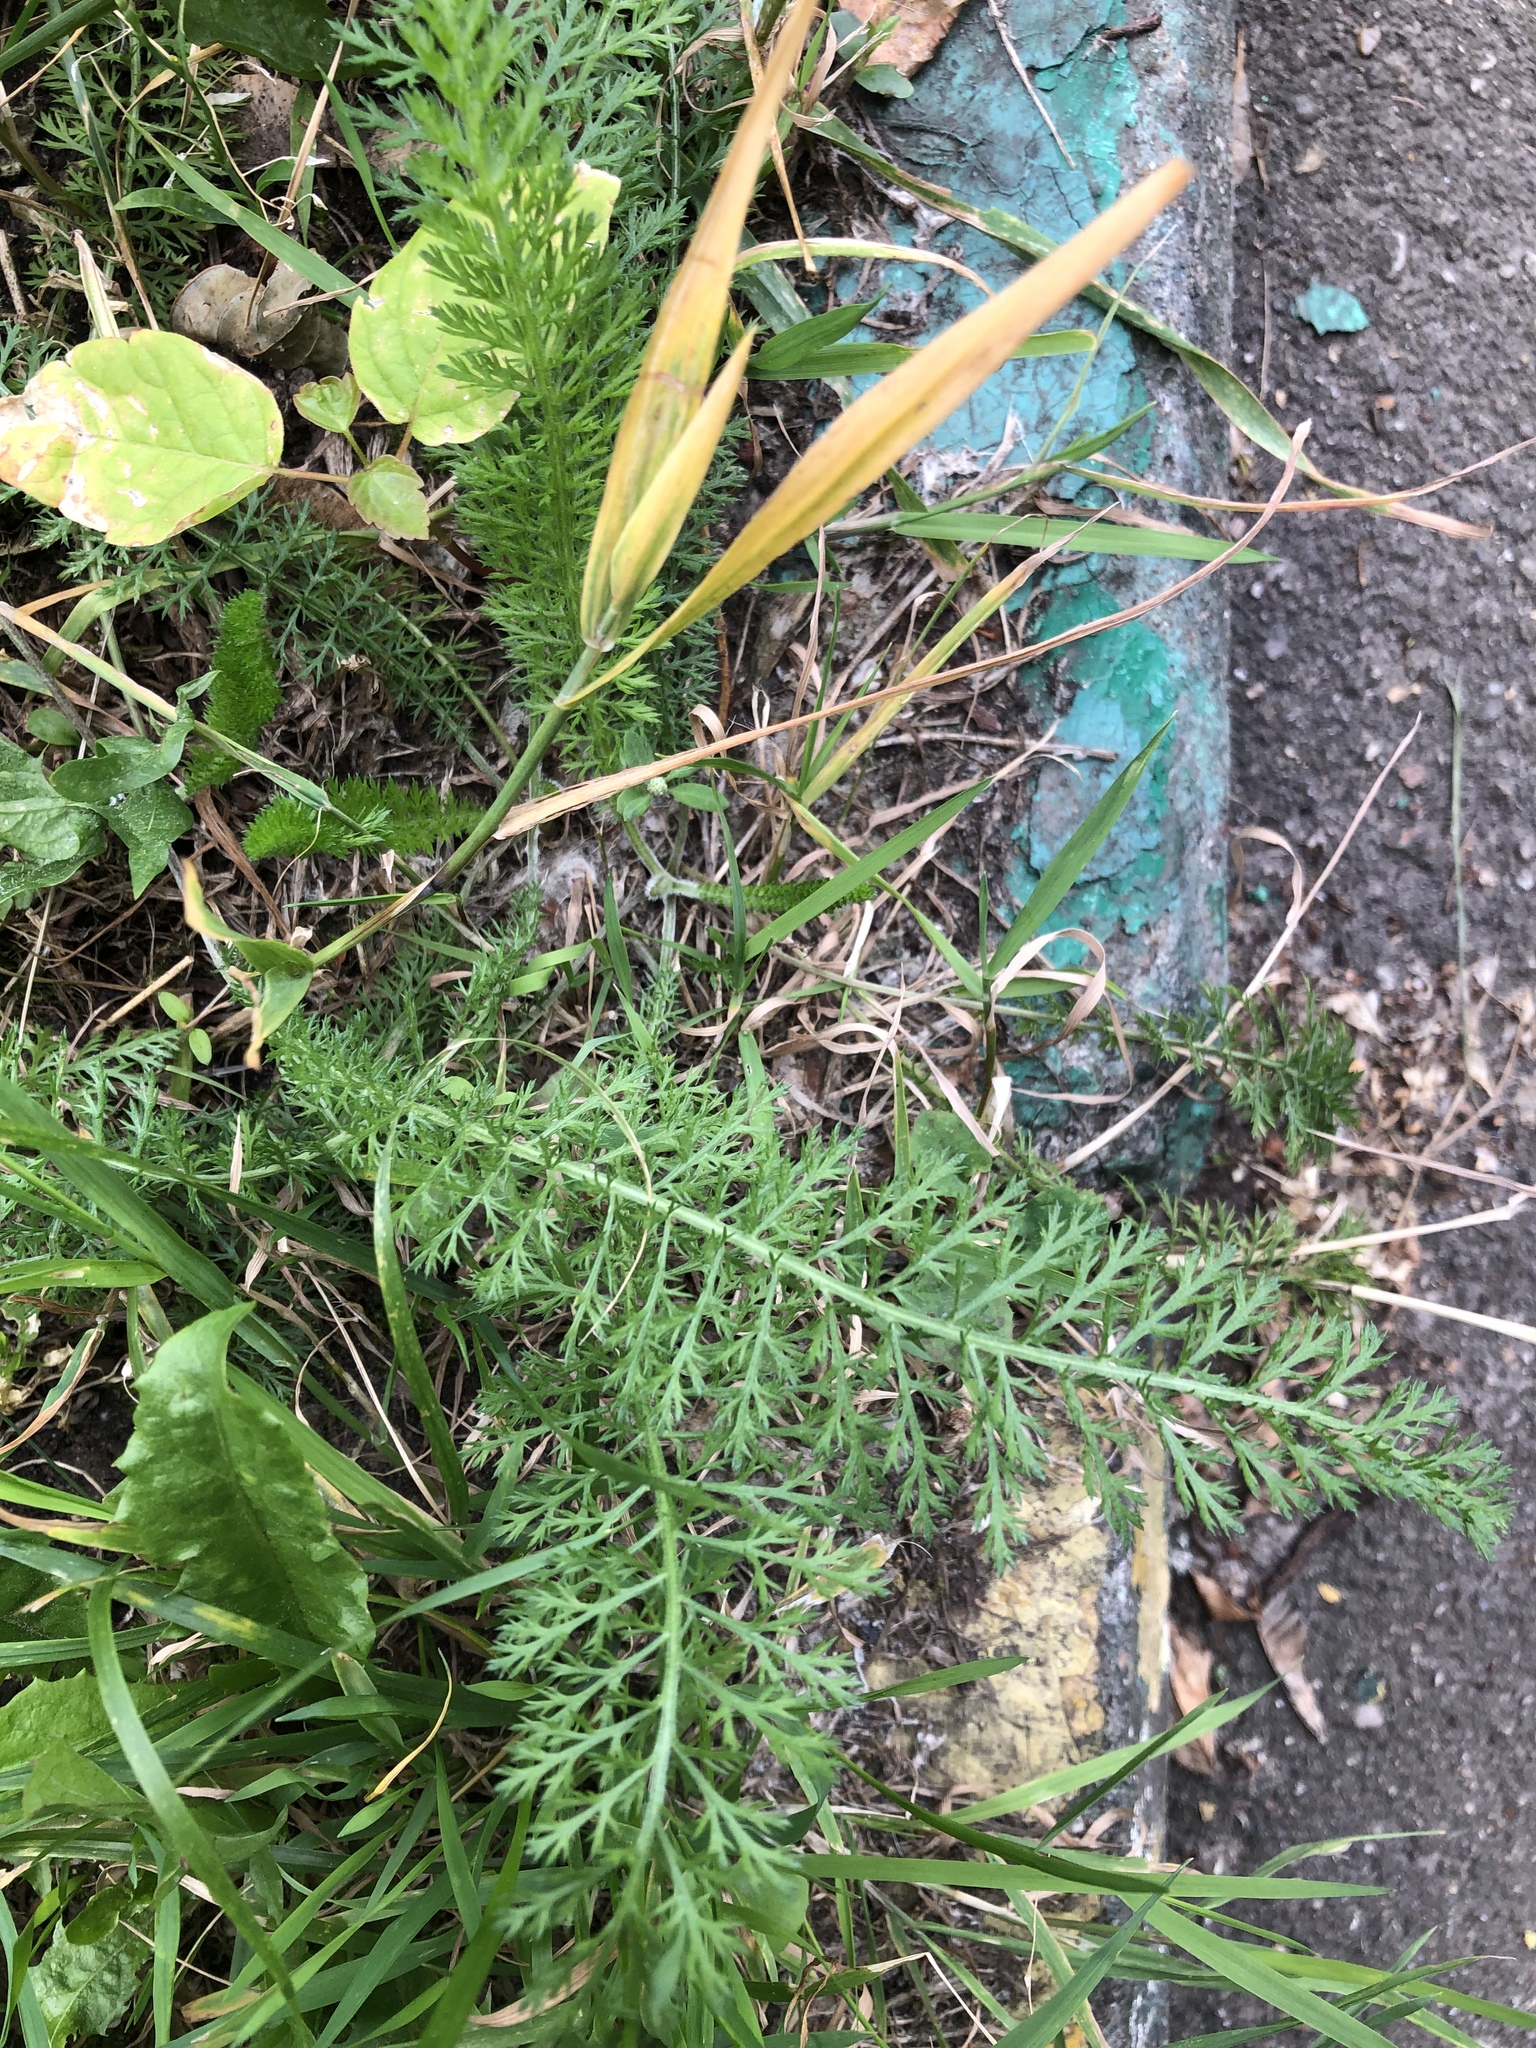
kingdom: Plantae
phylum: Tracheophyta
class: Magnoliopsida
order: Asterales
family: Asteraceae
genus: Achillea
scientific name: Achillea millefolium
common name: Yarrow
